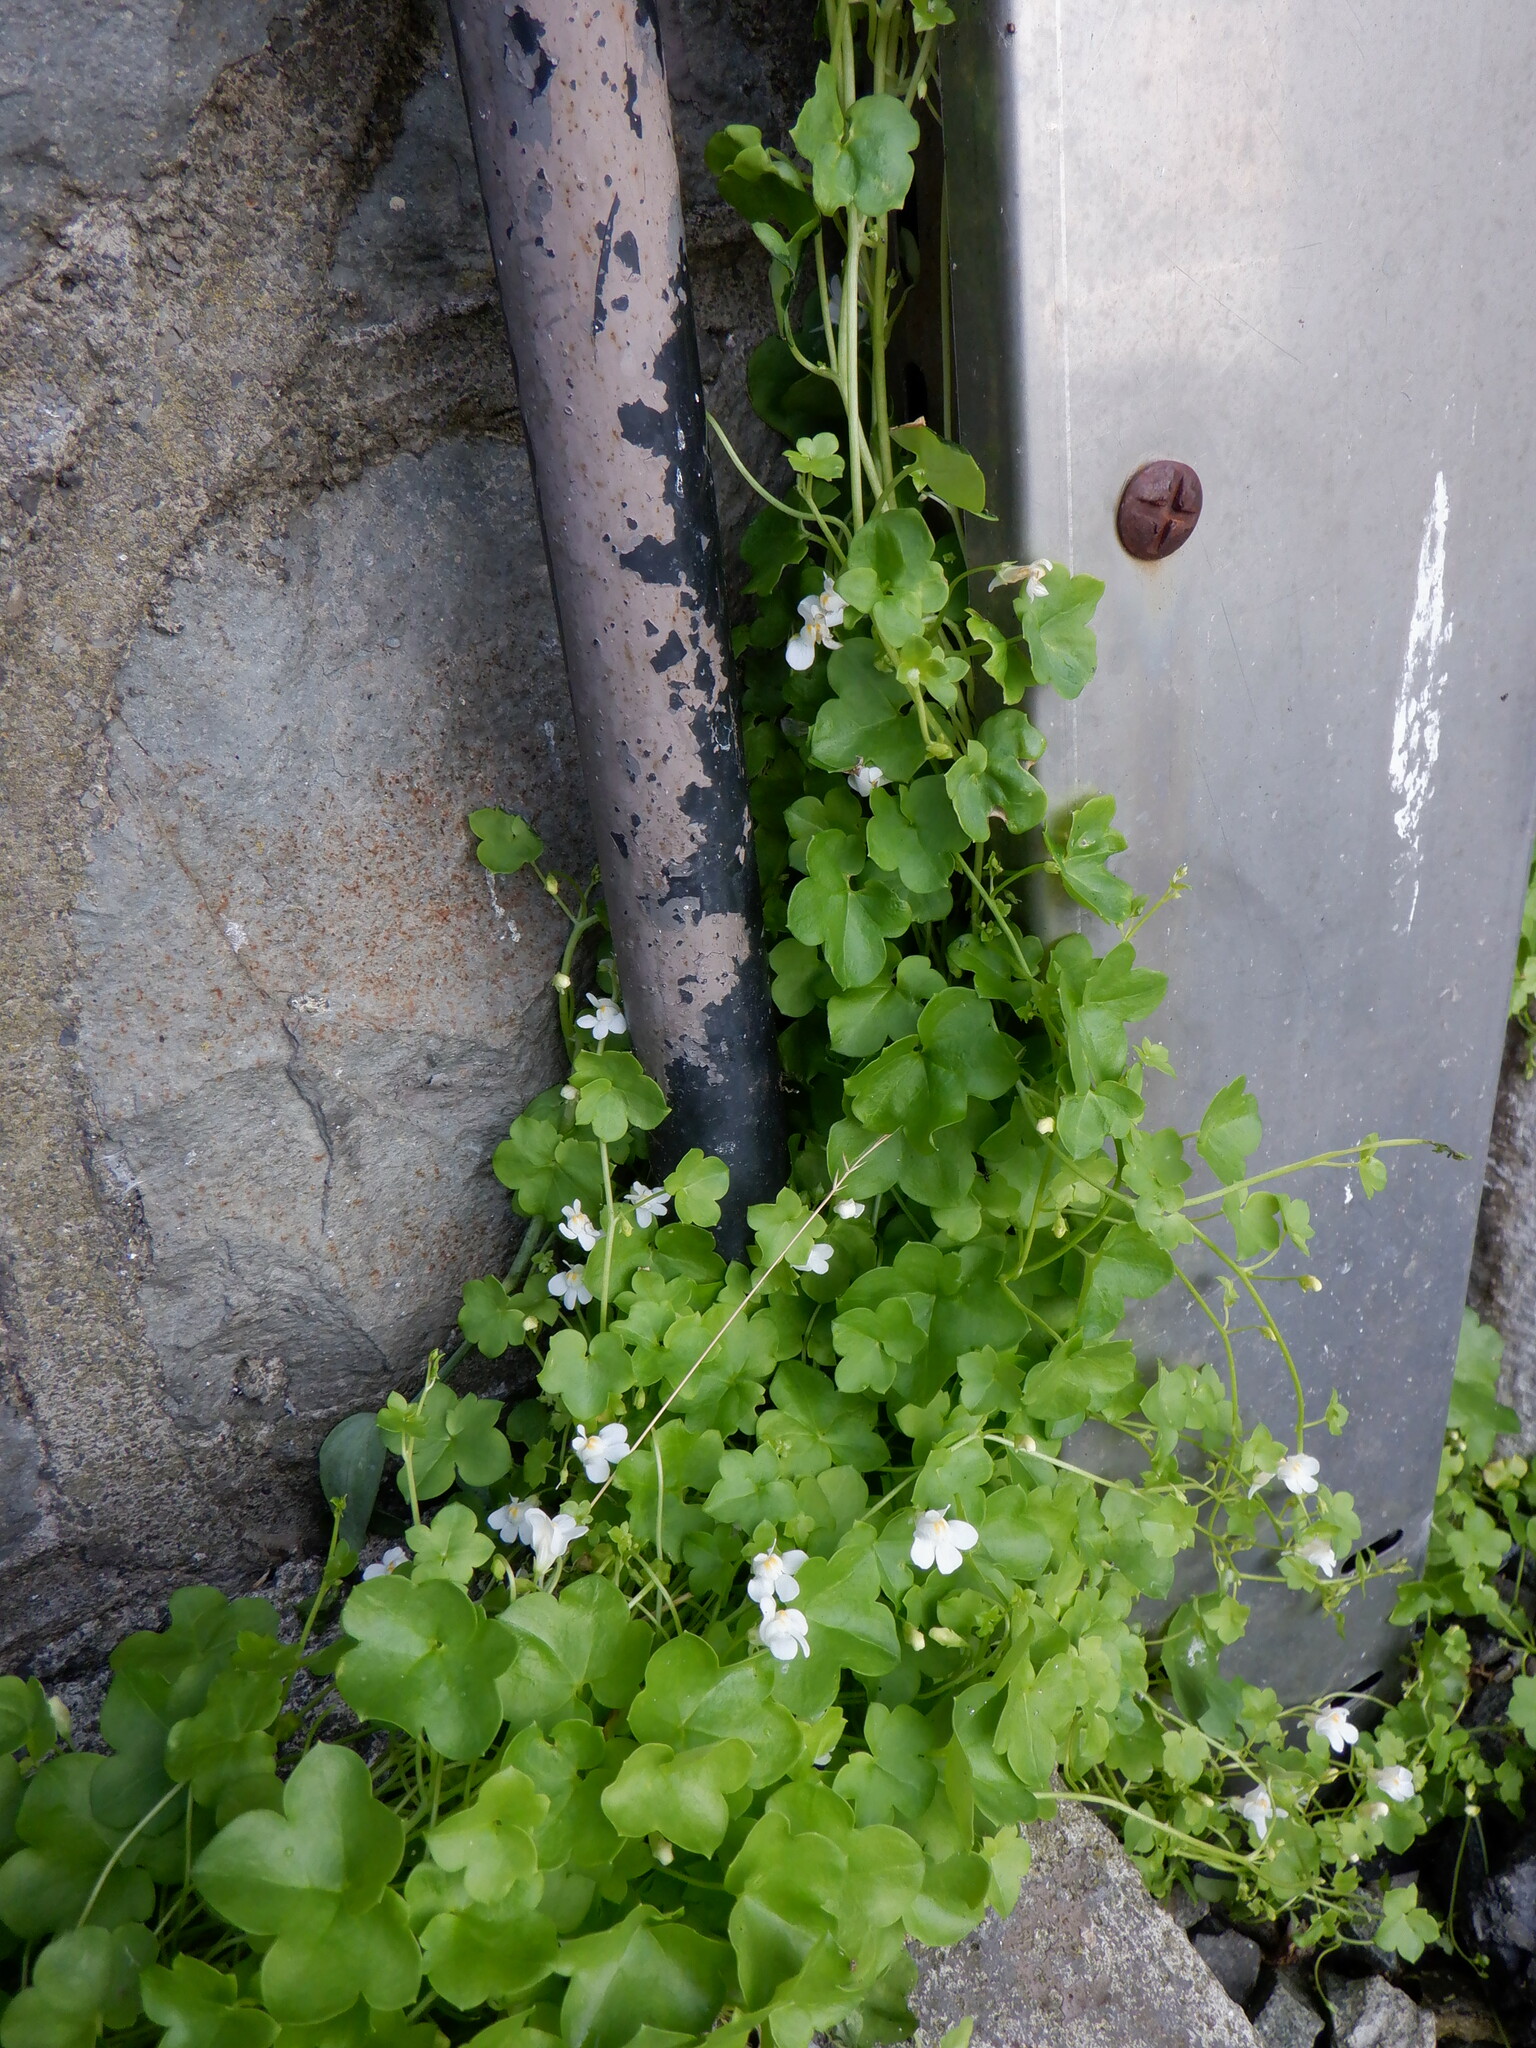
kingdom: Plantae
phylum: Tracheophyta
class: Magnoliopsida
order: Lamiales
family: Plantaginaceae
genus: Cymbalaria
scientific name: Cymbalaria muralis
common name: Ivy-leaved toadflax
